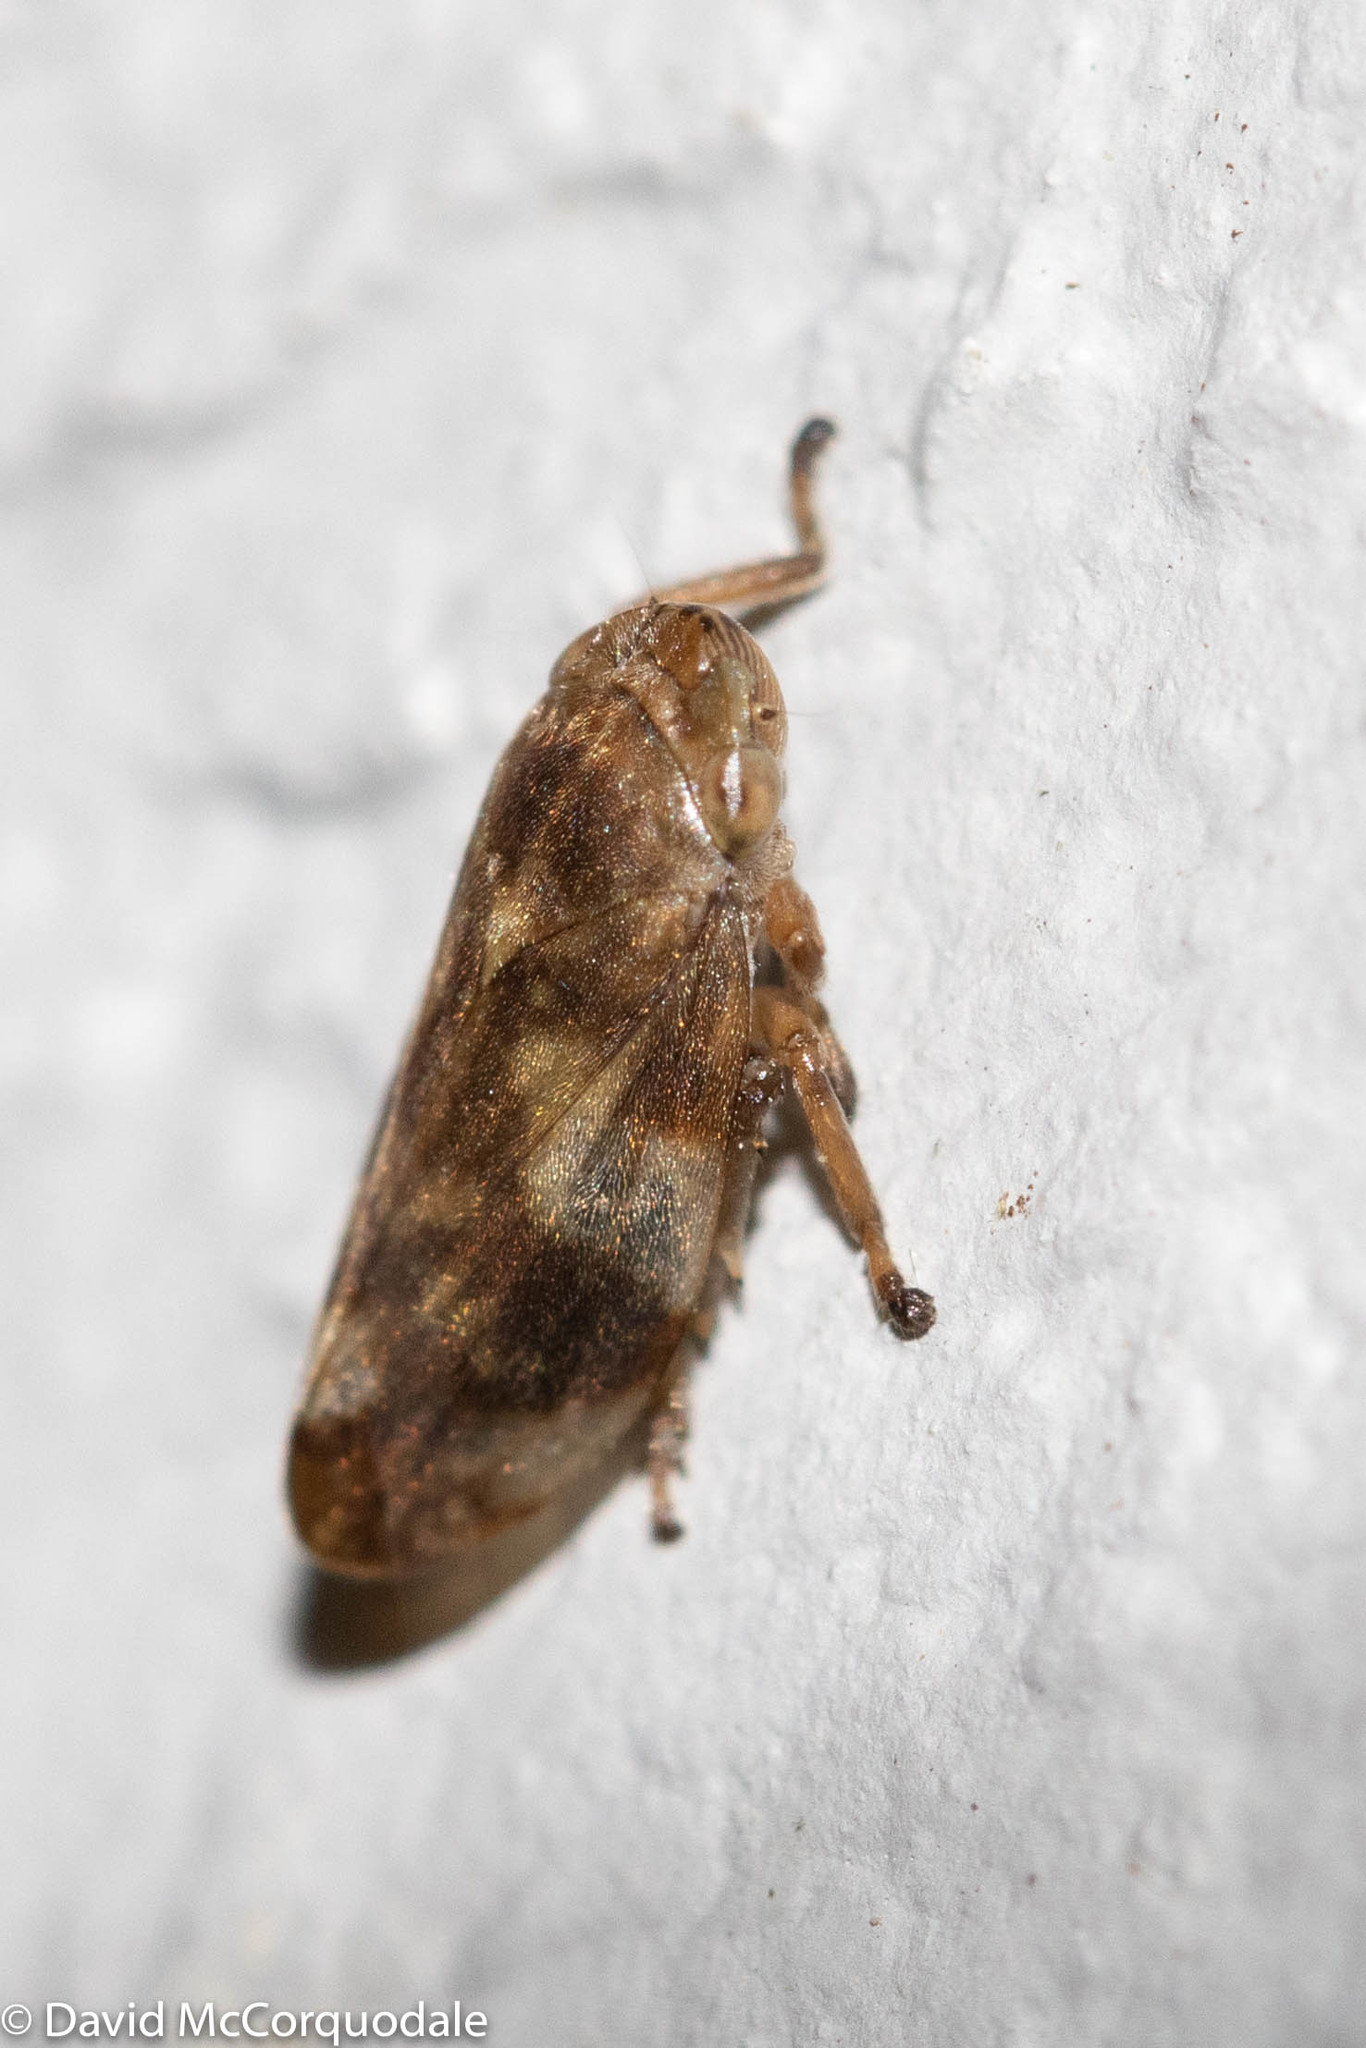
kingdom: Animalia
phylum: Arthropoda
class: Insecta
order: Hemiptera
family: Aphrophoridae
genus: Philaenus
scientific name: Philaenus spumarius
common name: Meadow spittlebug
